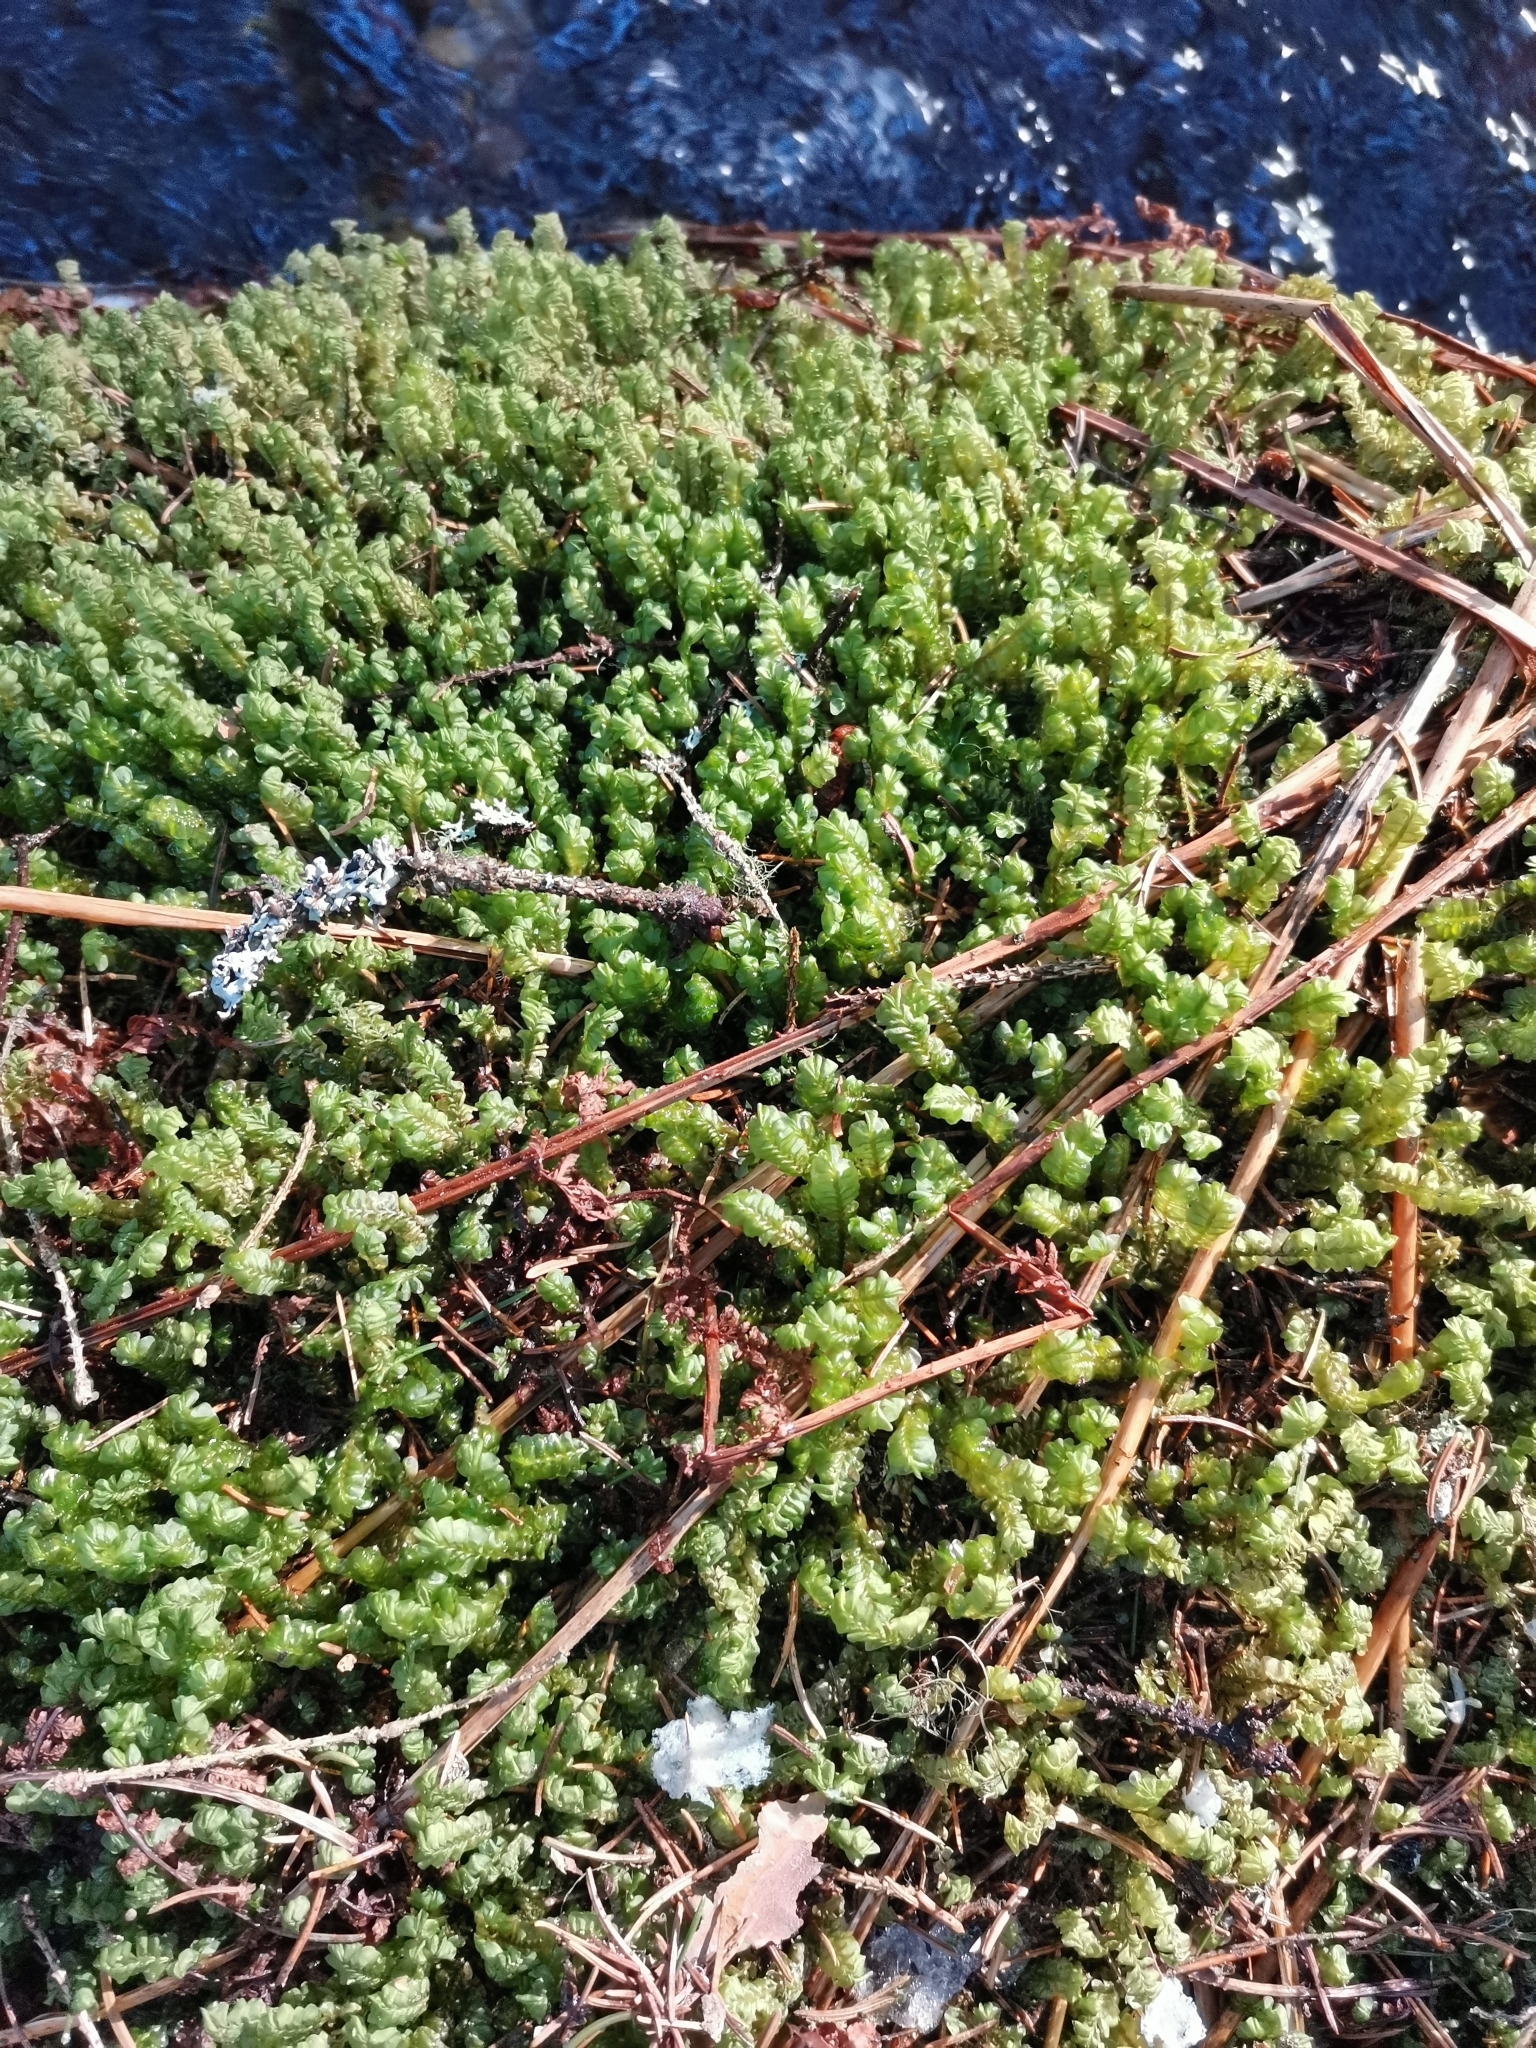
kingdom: Plantae
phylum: Marchantiophyta
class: Jungermanniopsida
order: Jungermanniales
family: Plagiochilaceae
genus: Plagiochila
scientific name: Plagiochila asplenioides
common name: Greater featherwort
